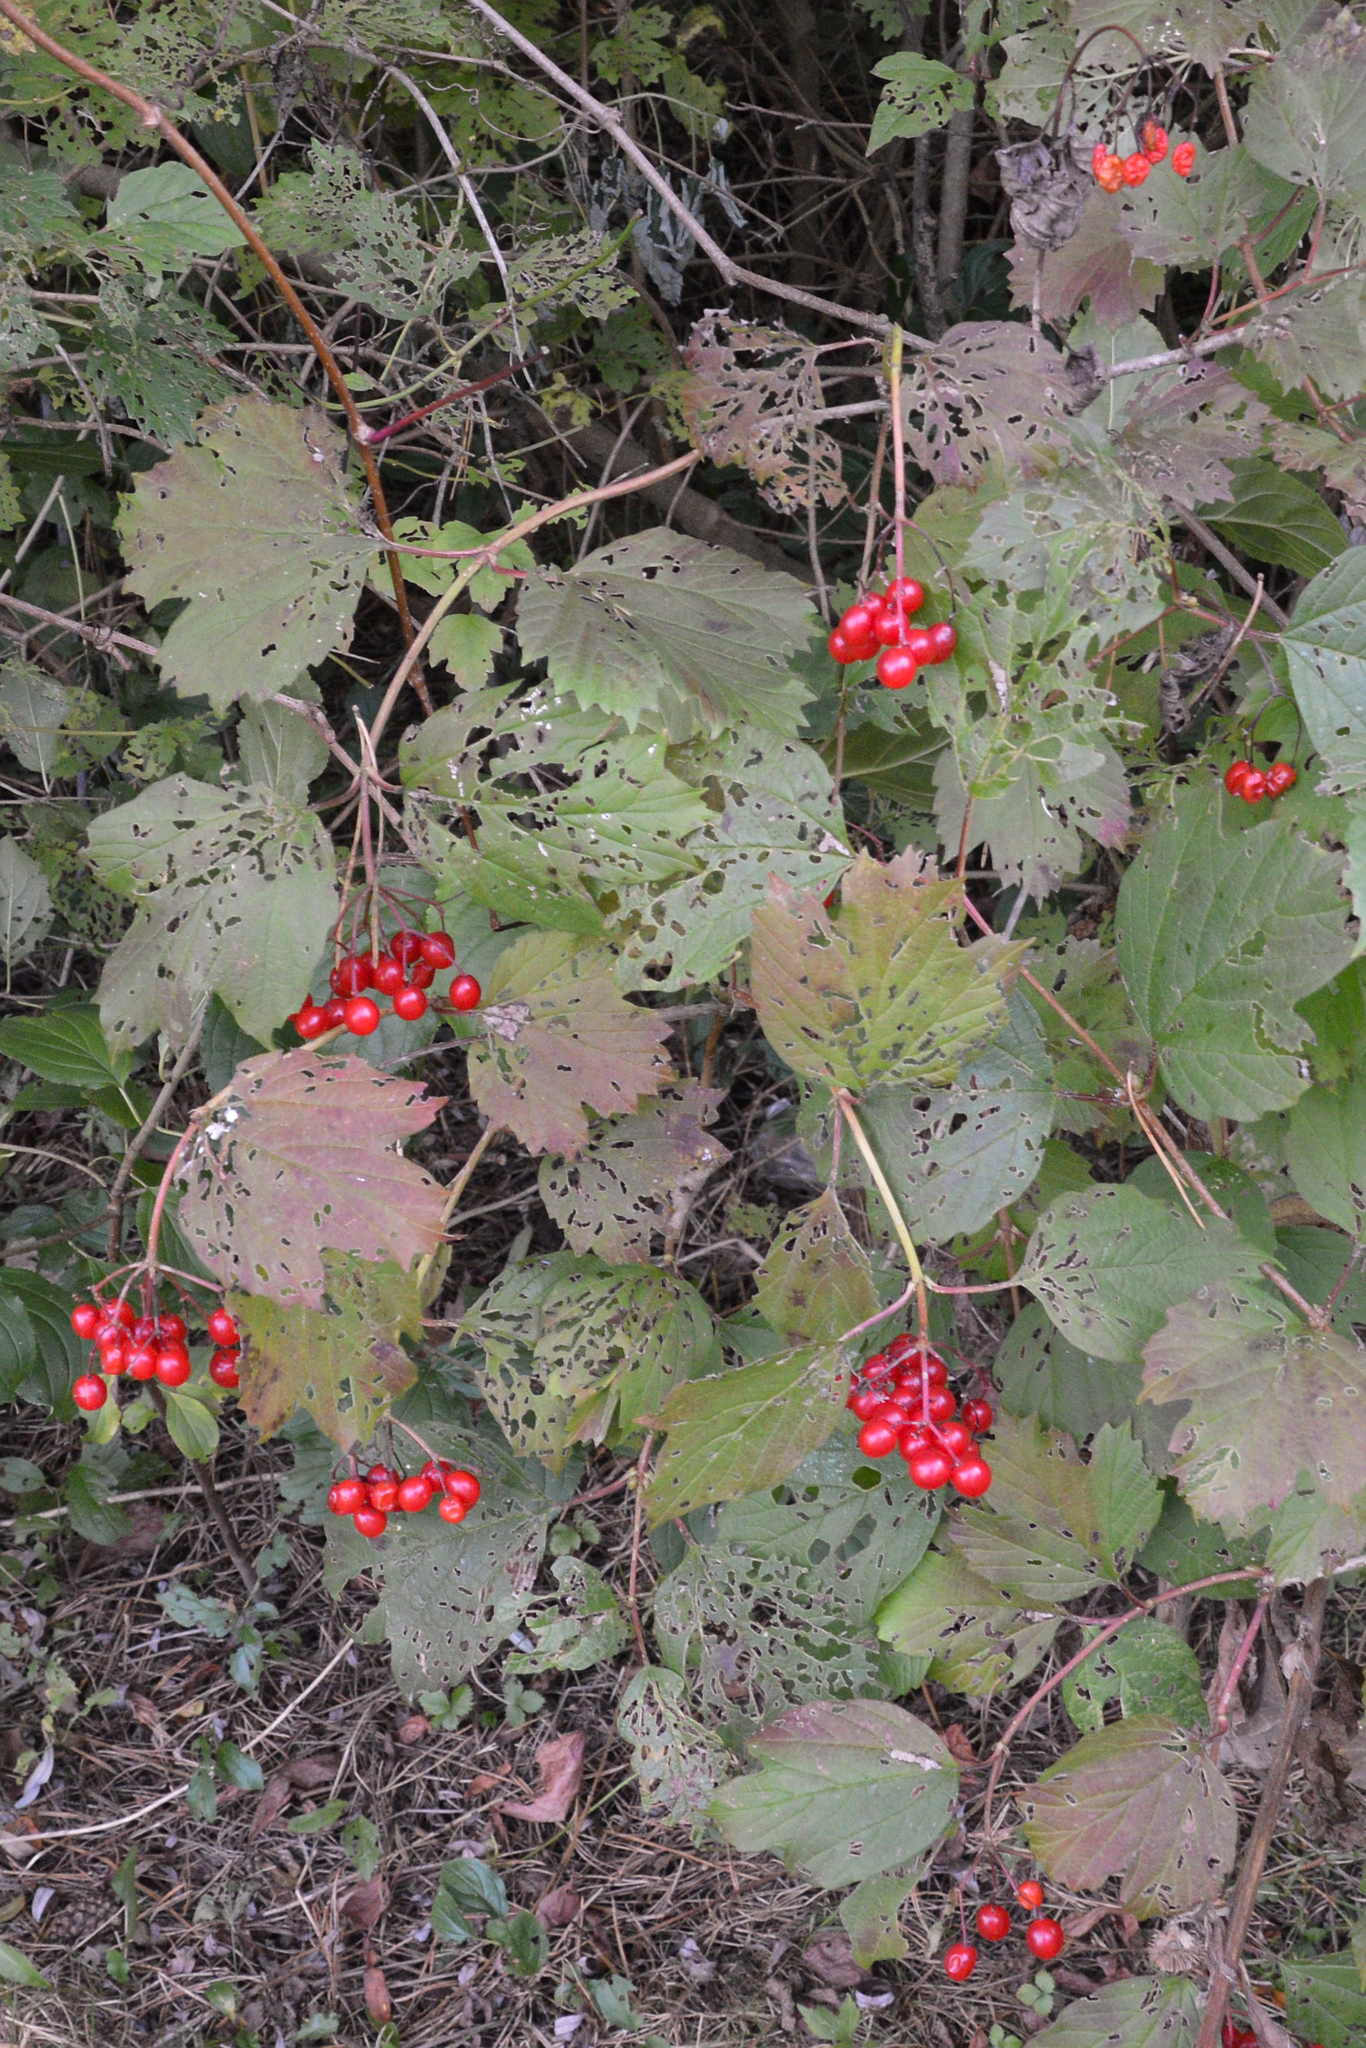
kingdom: Plantae
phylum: Tracheophyta
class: Magnoliopsida
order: Dipsacales
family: Viburnaceae
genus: Viburnum
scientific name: Viburnum opulus
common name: Guelder-rose
